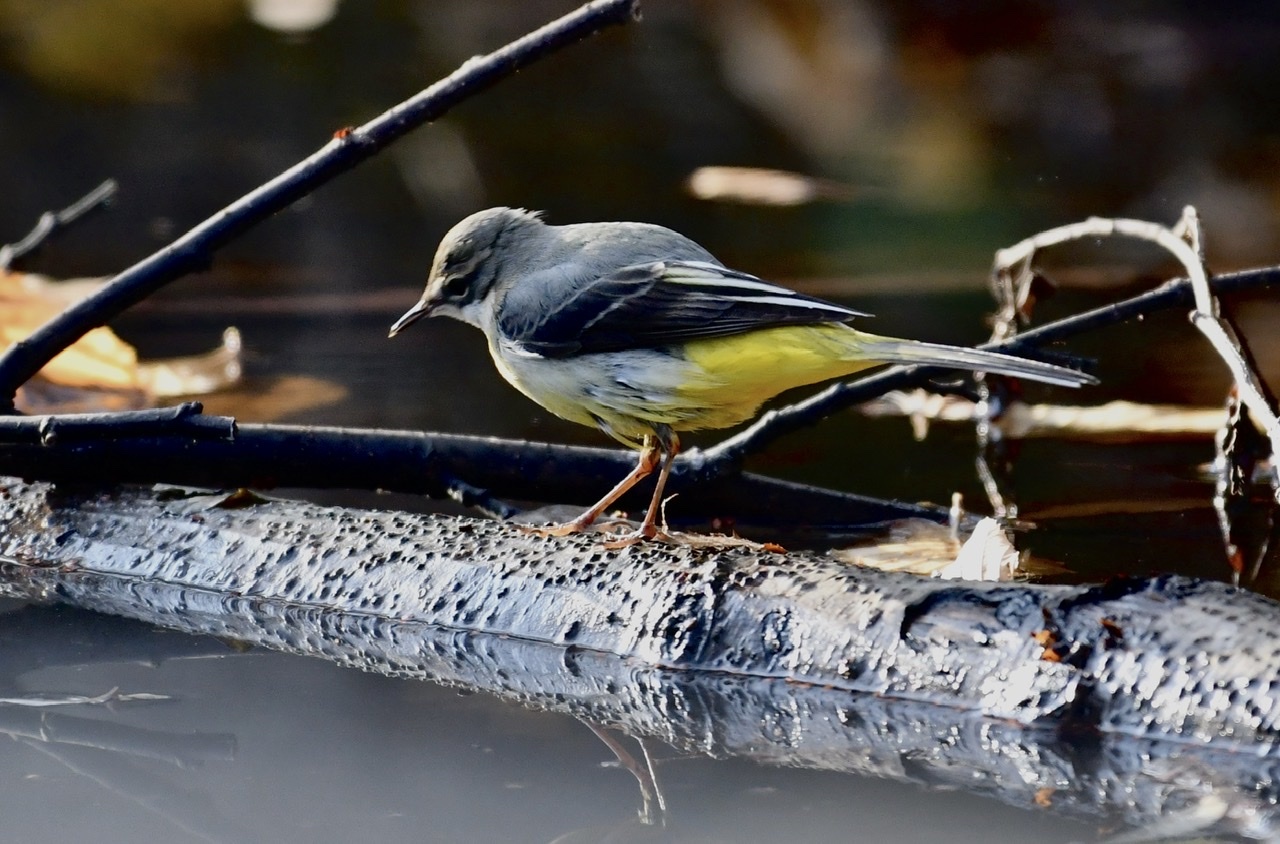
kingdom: Animalia
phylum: Chordata
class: Aves
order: Passeriformes
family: Motacillidae
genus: Motacilla
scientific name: Motacilla cinerea
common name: Grey wagtail
